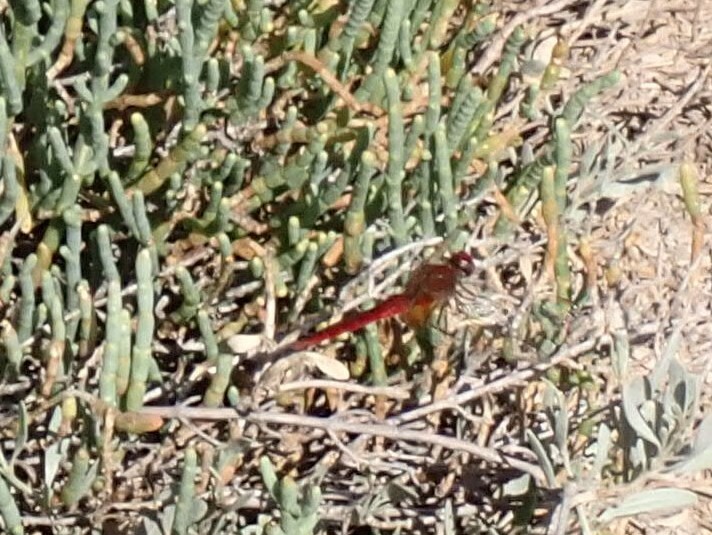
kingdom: Animalia
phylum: Arthropoda
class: Insecta
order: Odonata
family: Libellulidae
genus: Crocothemis
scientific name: Crocothemis erythraea
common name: Scarlet dragonfly
